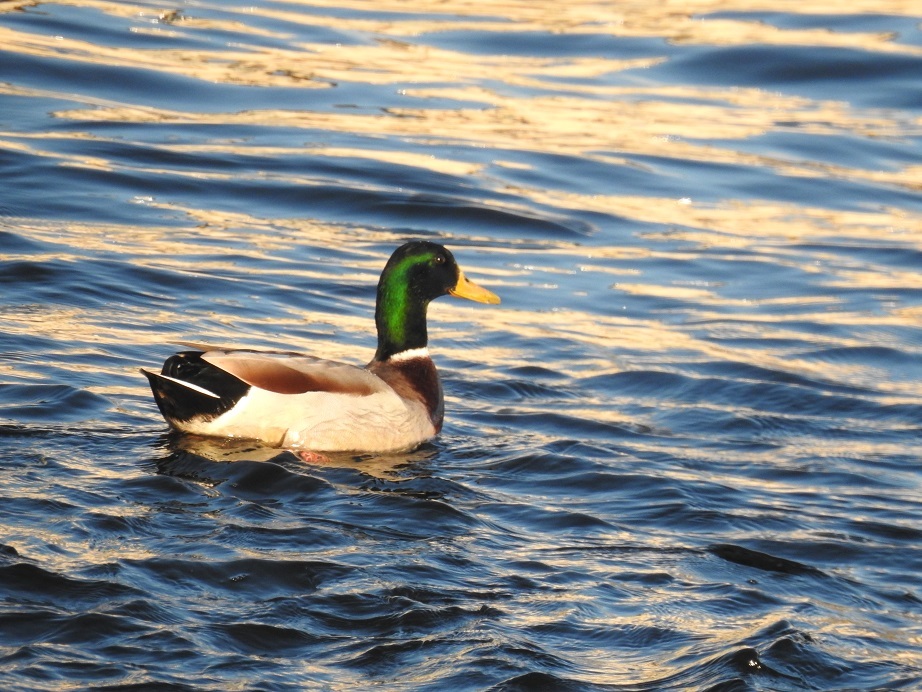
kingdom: Animalia
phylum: Chordata
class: Aves
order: Anseriformes
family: Anatidae
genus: Anas
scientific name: Anas platyrhynchos
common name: Mallard
